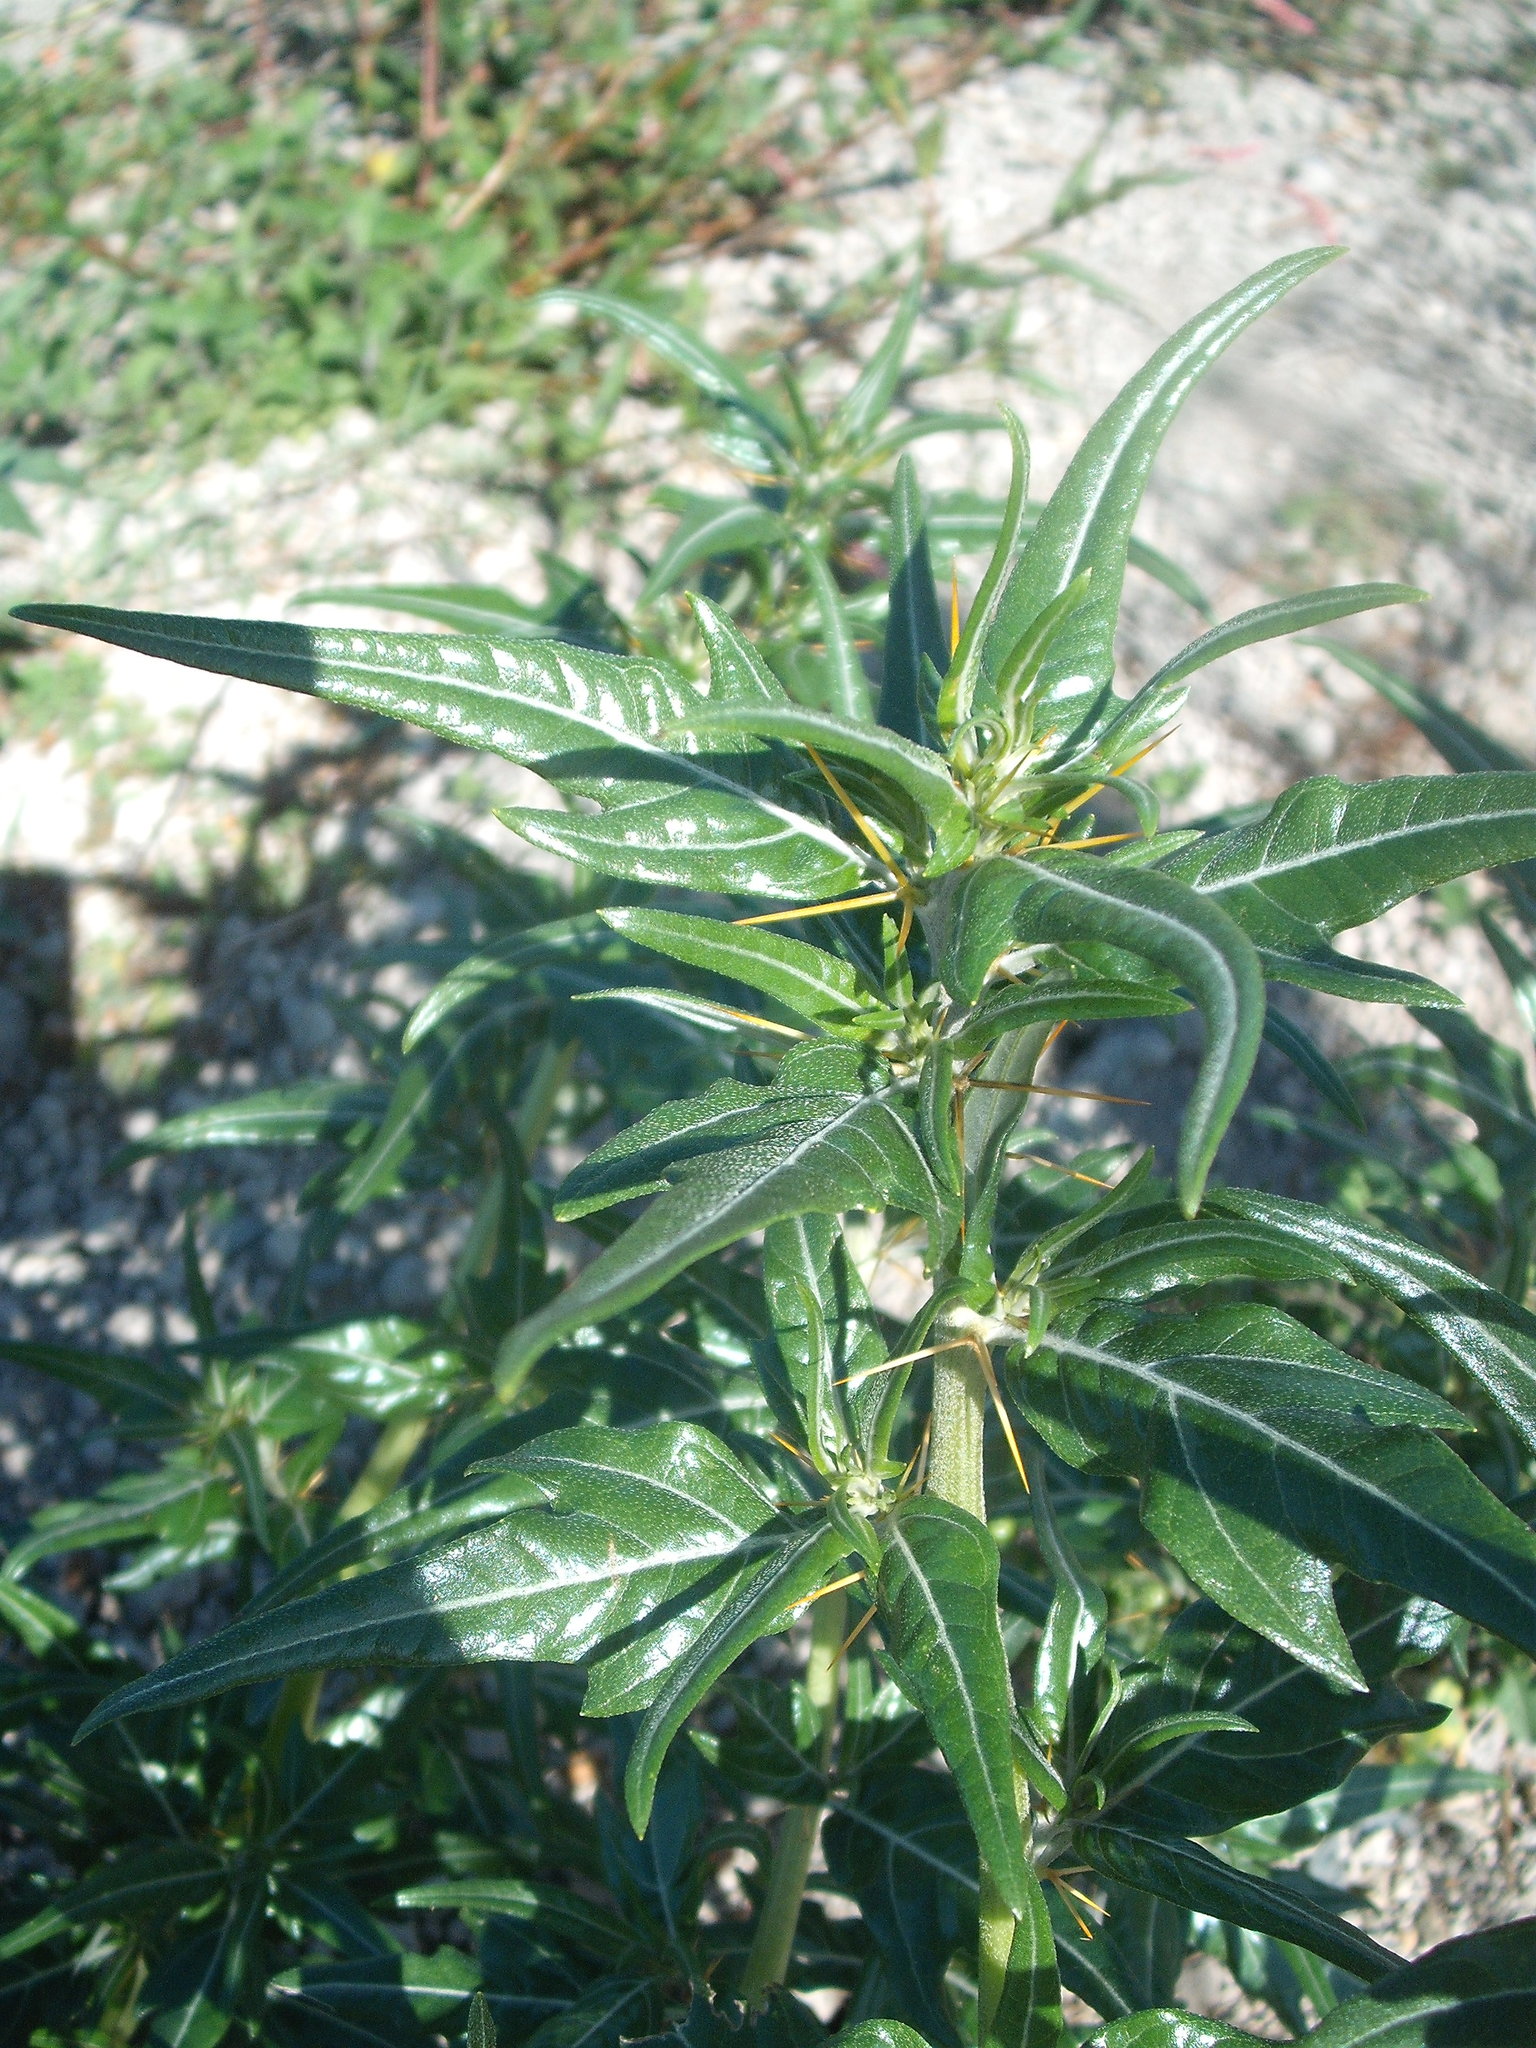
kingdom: Plantae
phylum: Tracheophyta
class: Magnoliopsida
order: Asterales
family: Asteraceae
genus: Xanthium
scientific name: Xanthium spinosum
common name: Spiny cocklebur
